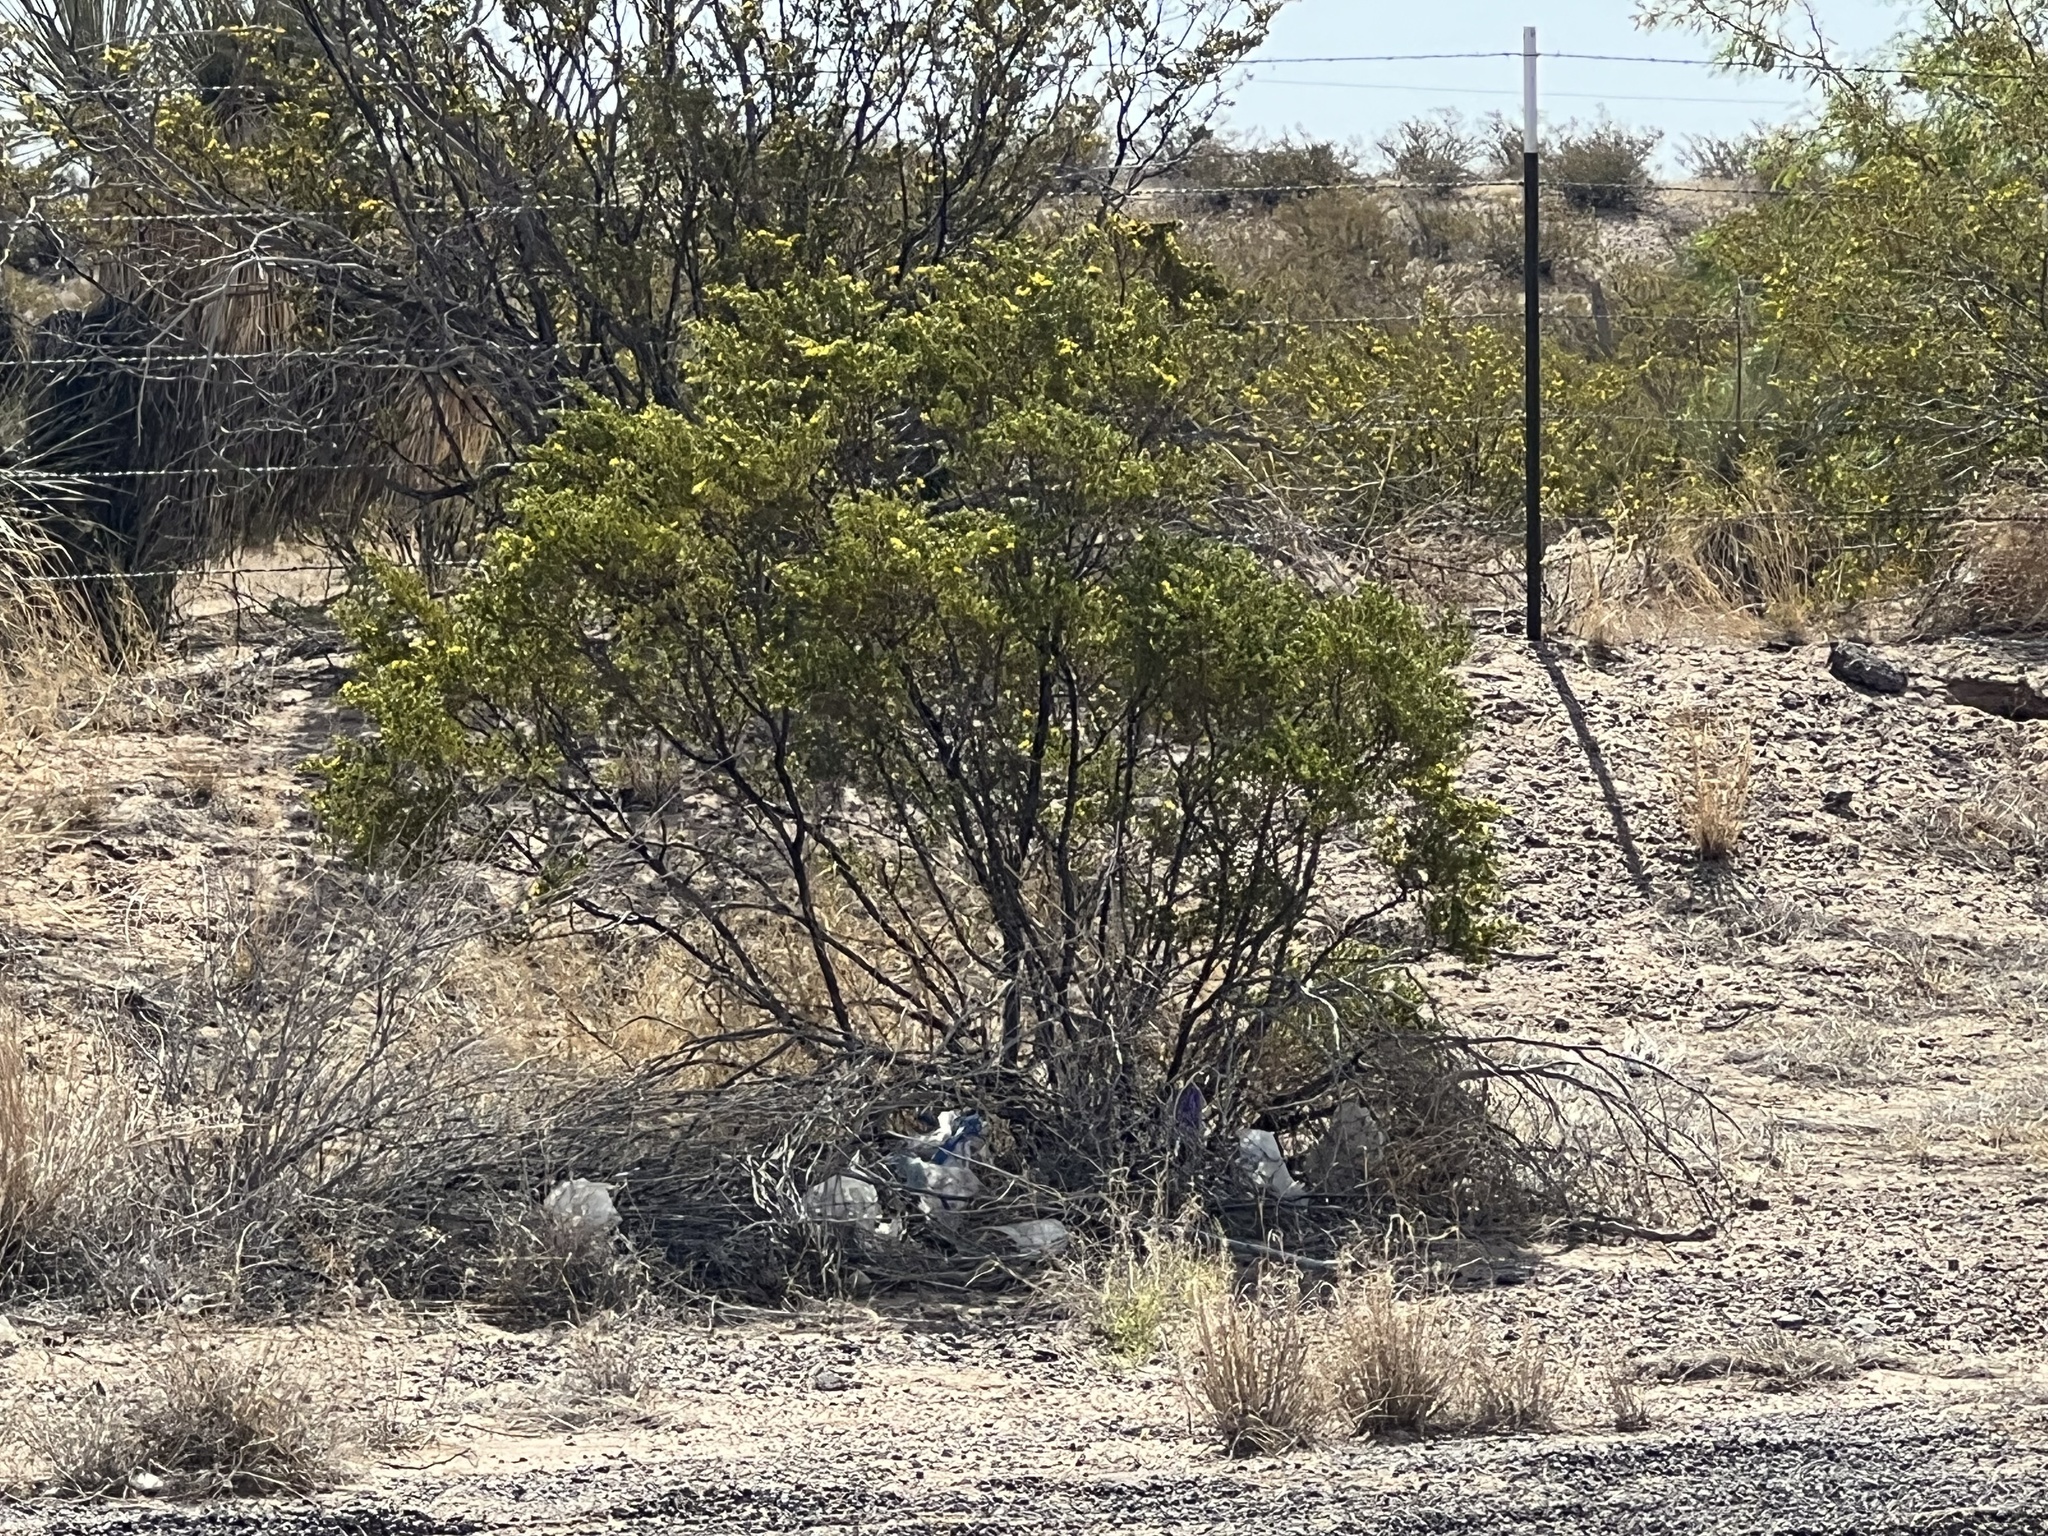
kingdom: Plantae
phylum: Tracheophyta
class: Magnoliopsida
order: Zygophyllales
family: Zygophyllaceae
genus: Larrea
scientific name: Larrea tridentata
